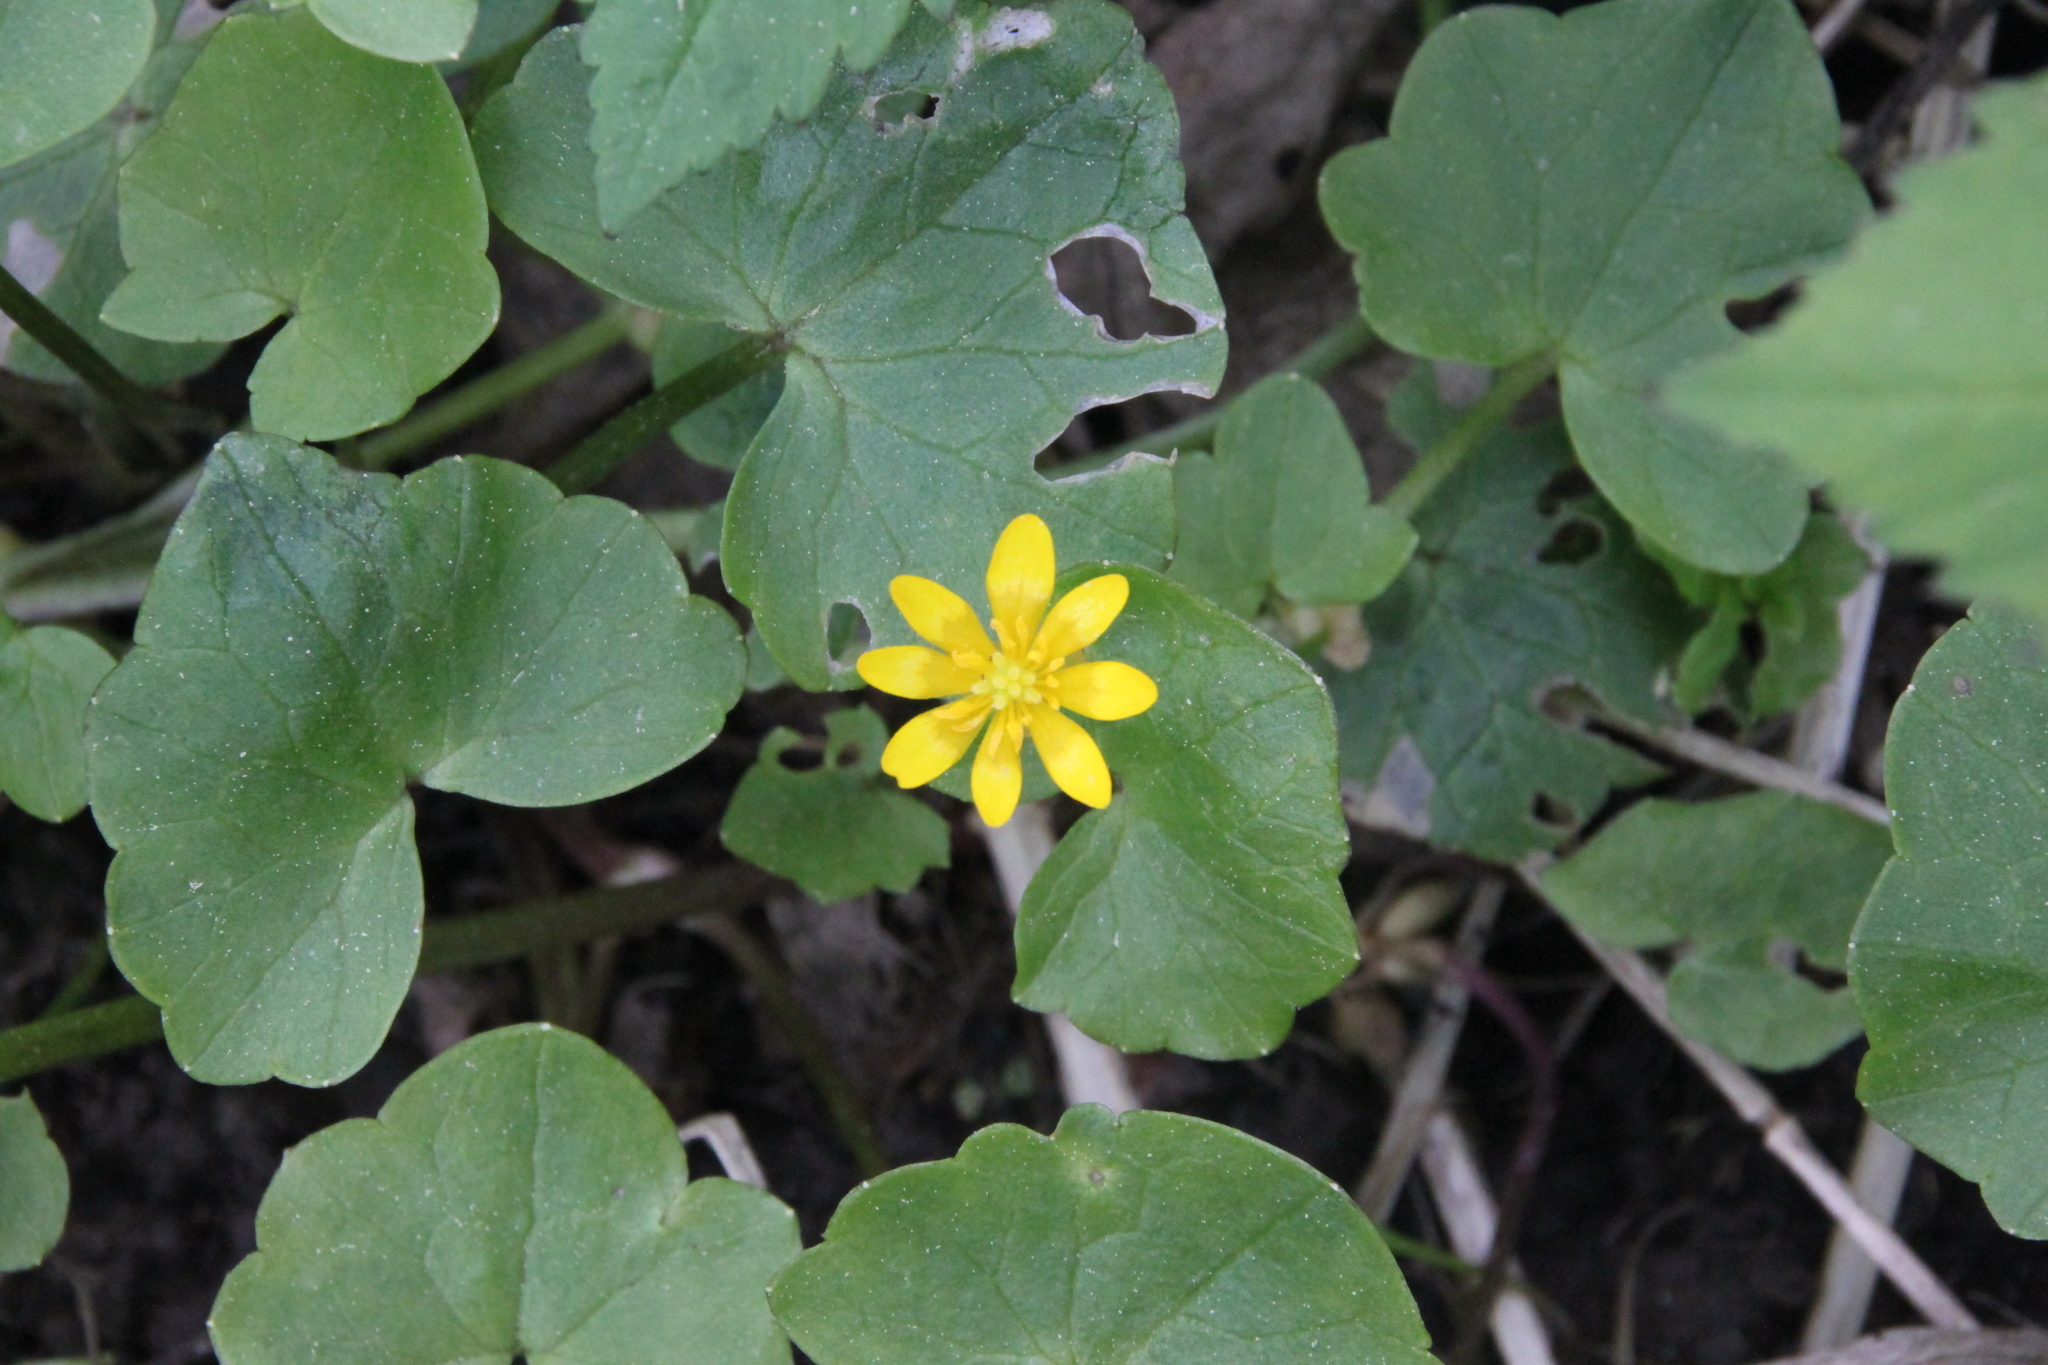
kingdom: Plantae
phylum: Tracheophyta
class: Magnoliopsida
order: Ranunculales
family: Ranunculaceae
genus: Ficaria
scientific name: Ficaria verna
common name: Lesser celandine
